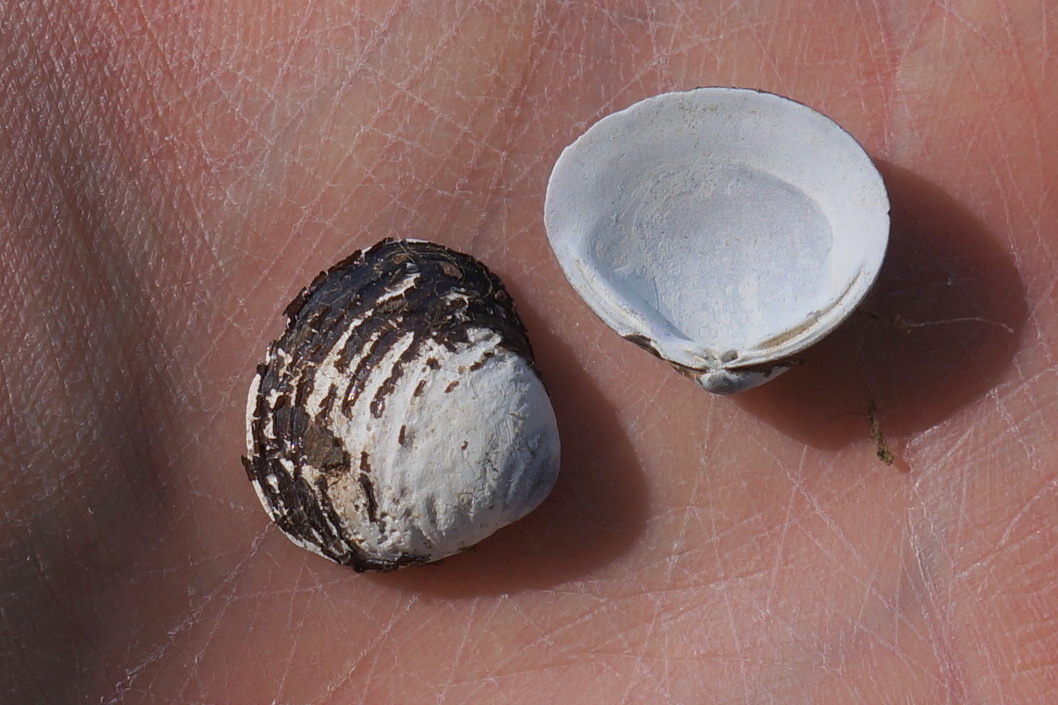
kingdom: Animalia
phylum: Mollusca
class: Bivalvia
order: Venerida
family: Cyrenidae
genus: Corbicula
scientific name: Corbicula fluminea
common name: Asian clam
